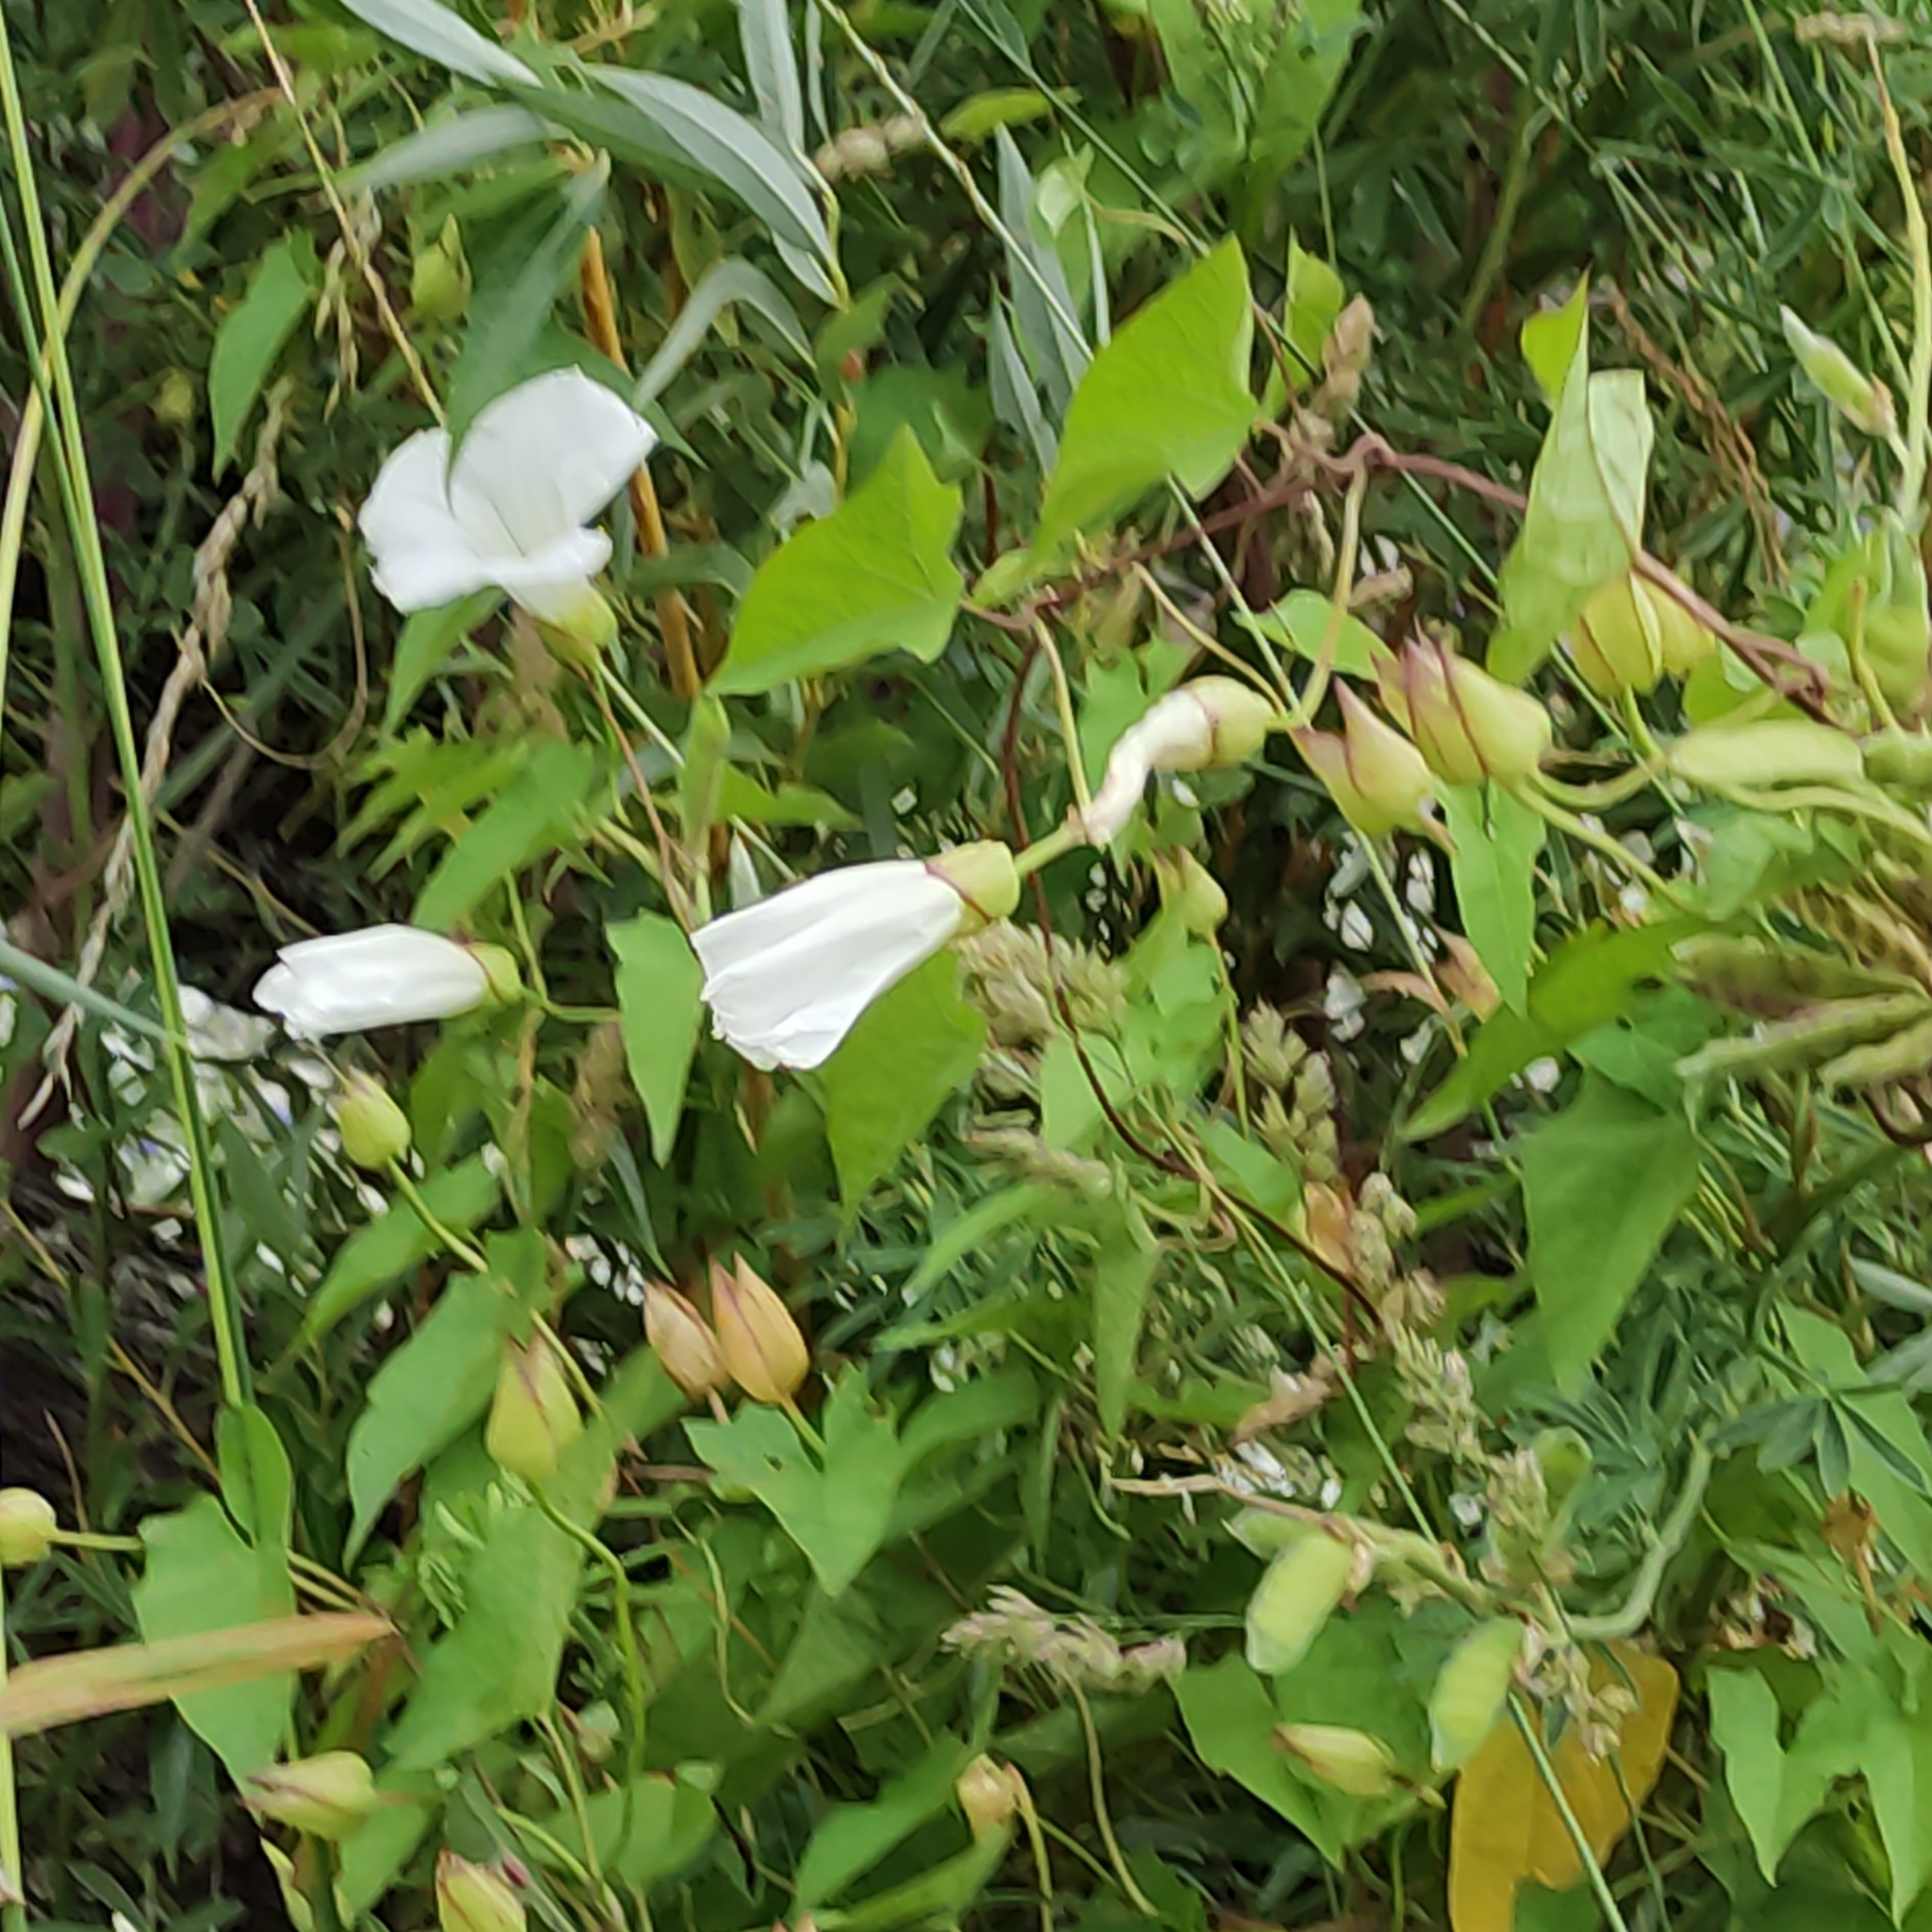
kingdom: Plantae
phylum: Tracheophyta
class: Magnoliopsida
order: Solanales
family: Convolvulaceae
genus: Calystegia
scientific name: Calystegia silvatica
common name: Large bindweed
